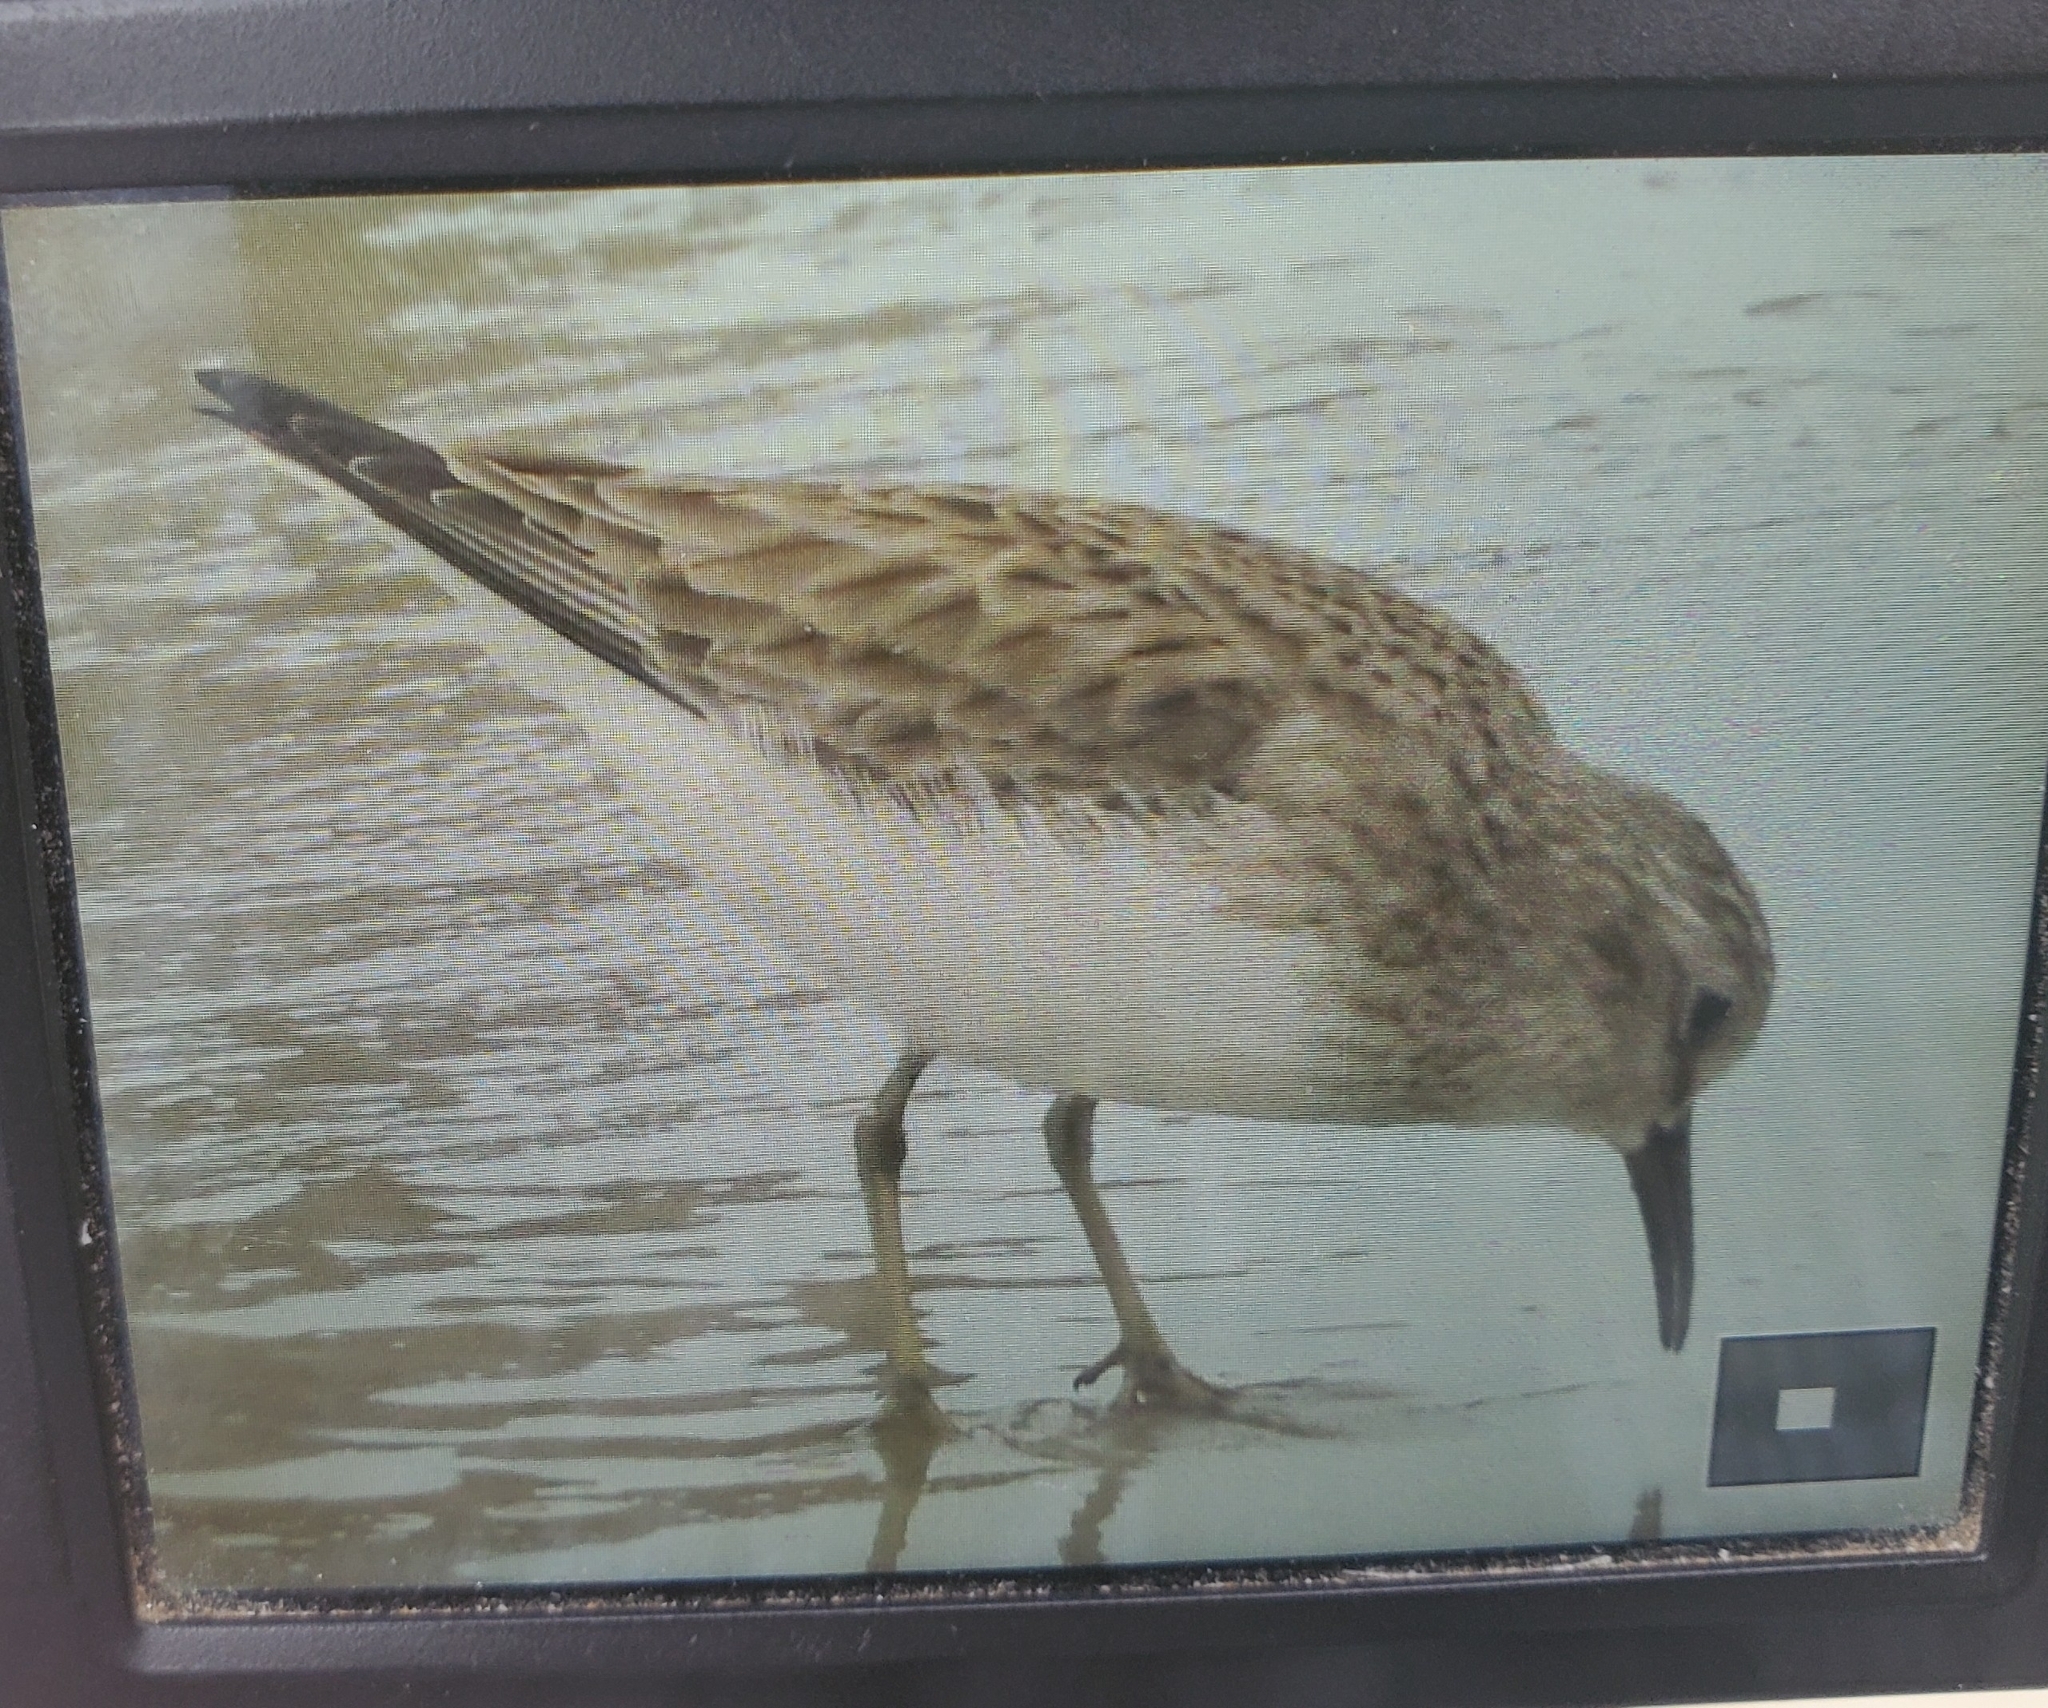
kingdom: Animalia
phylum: Chordata
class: Aves
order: Charadriiformes
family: Scolopacidae
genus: Calidris
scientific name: Calidris minutilla
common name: Least sandpiper
